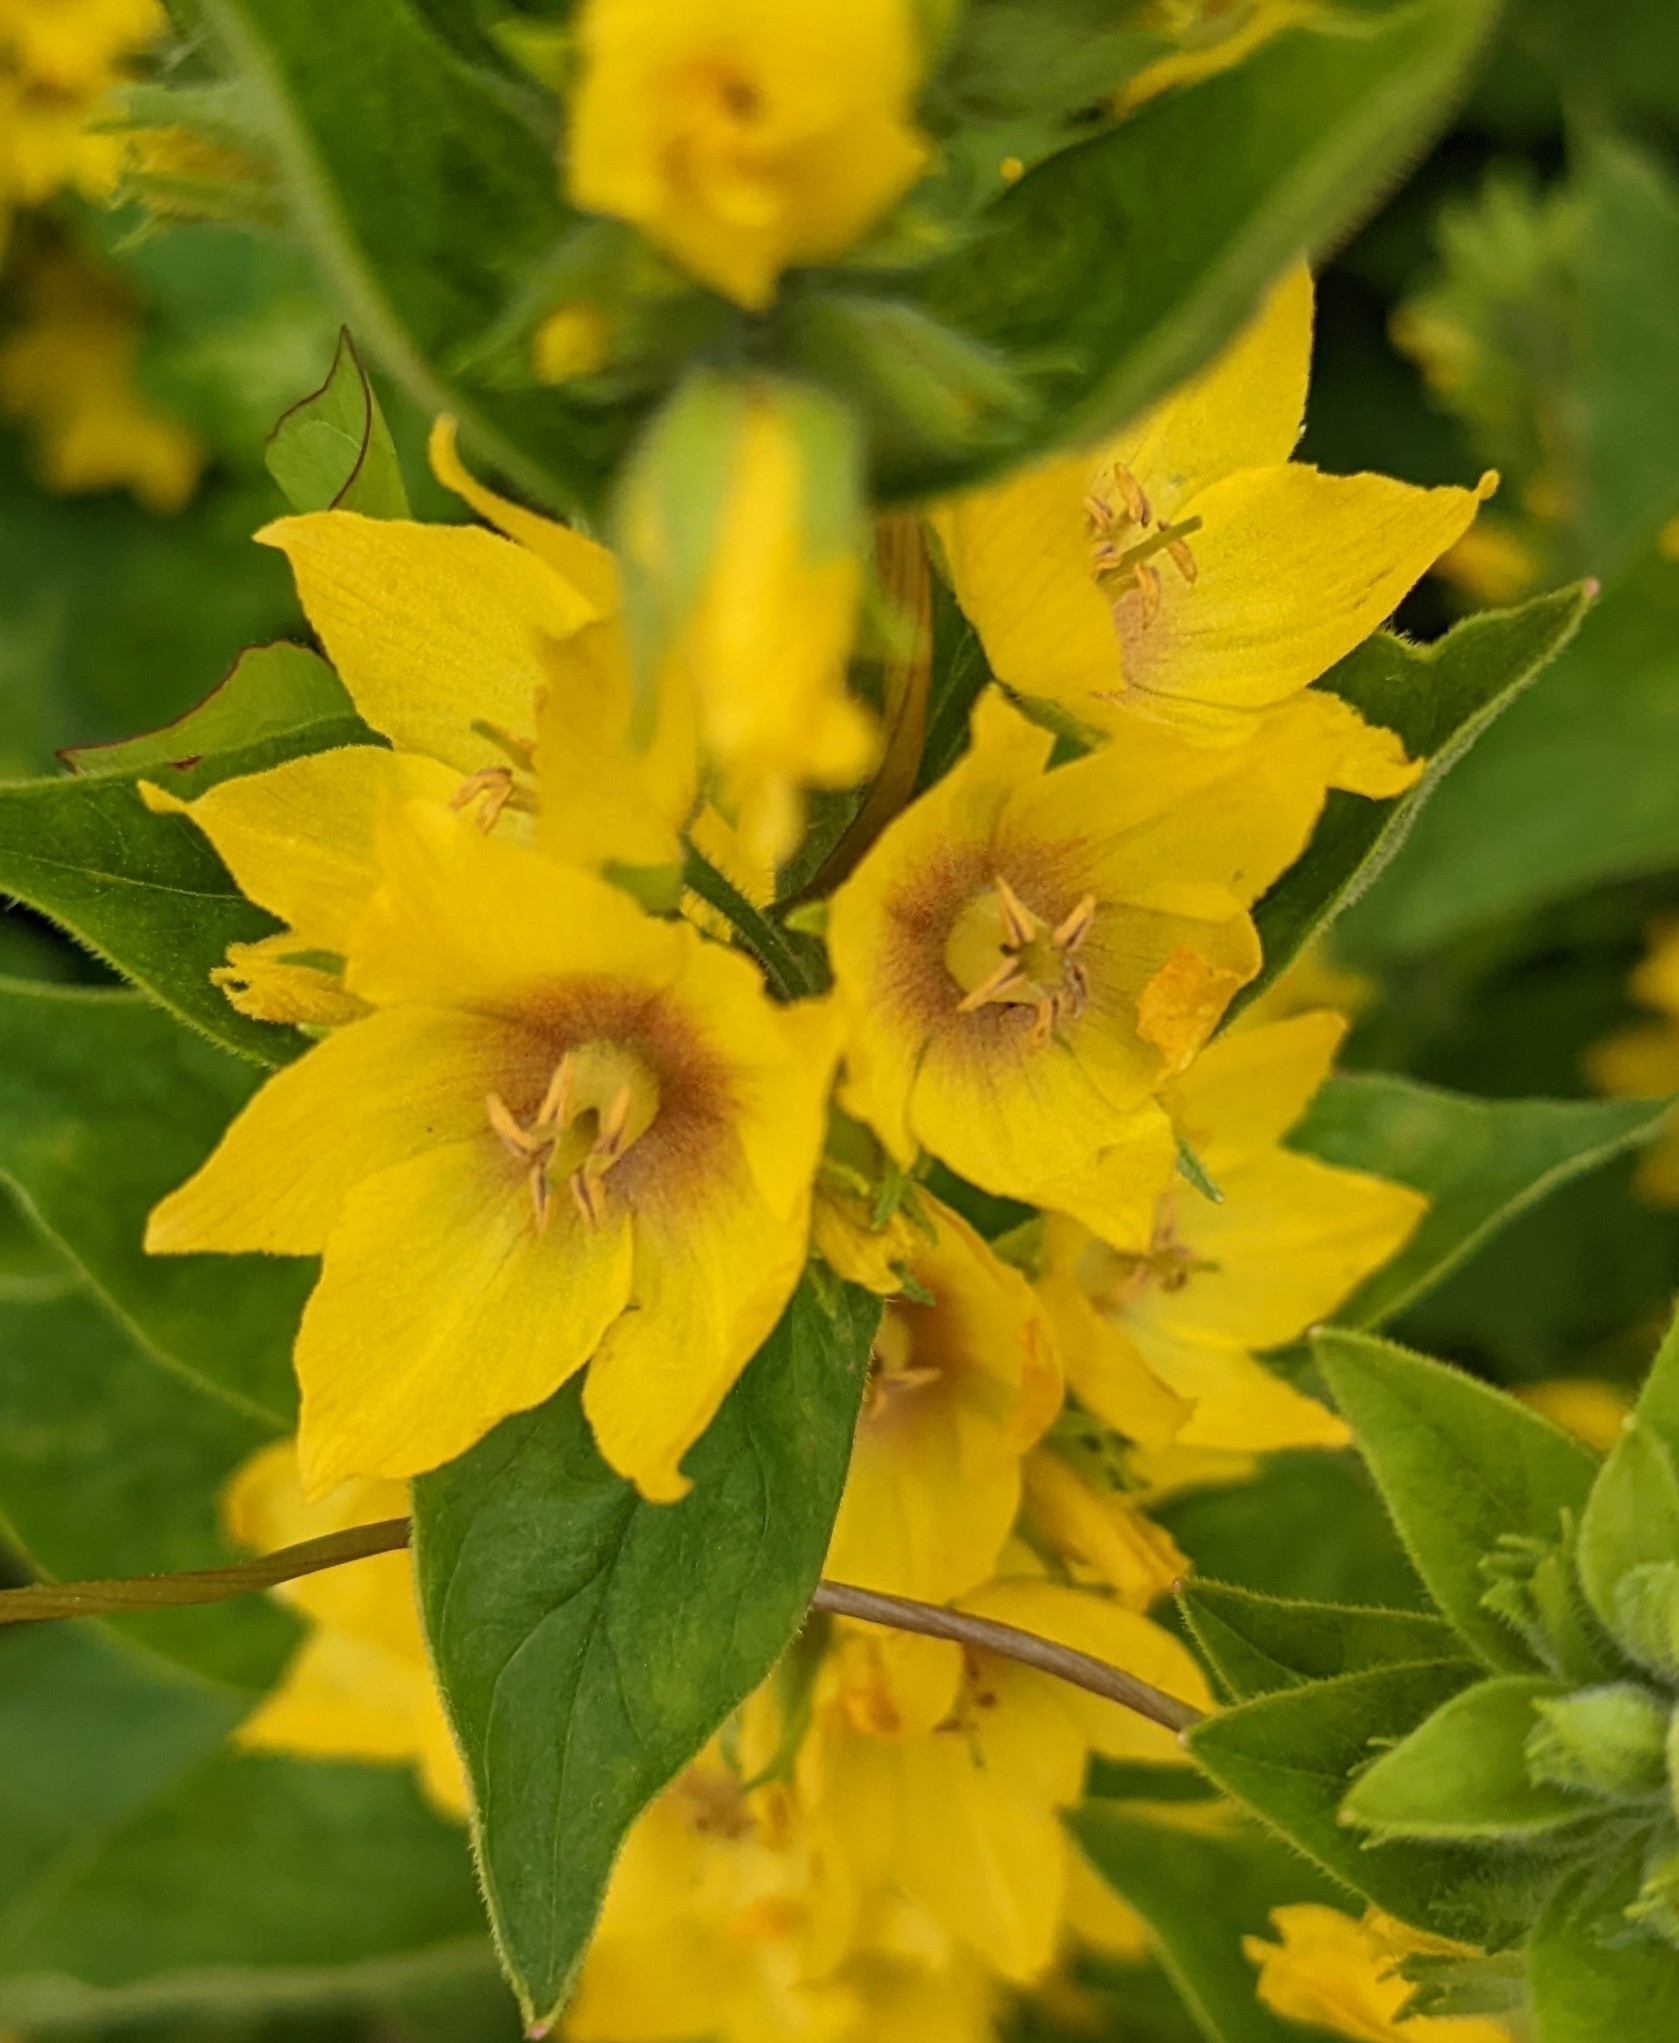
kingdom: Plantae
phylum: Tracheophyta
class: Magnoliopsida
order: Ericales
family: Primulaceae
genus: Lysimachia
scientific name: Lysimachia punctata
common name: Dotted loosestrife
